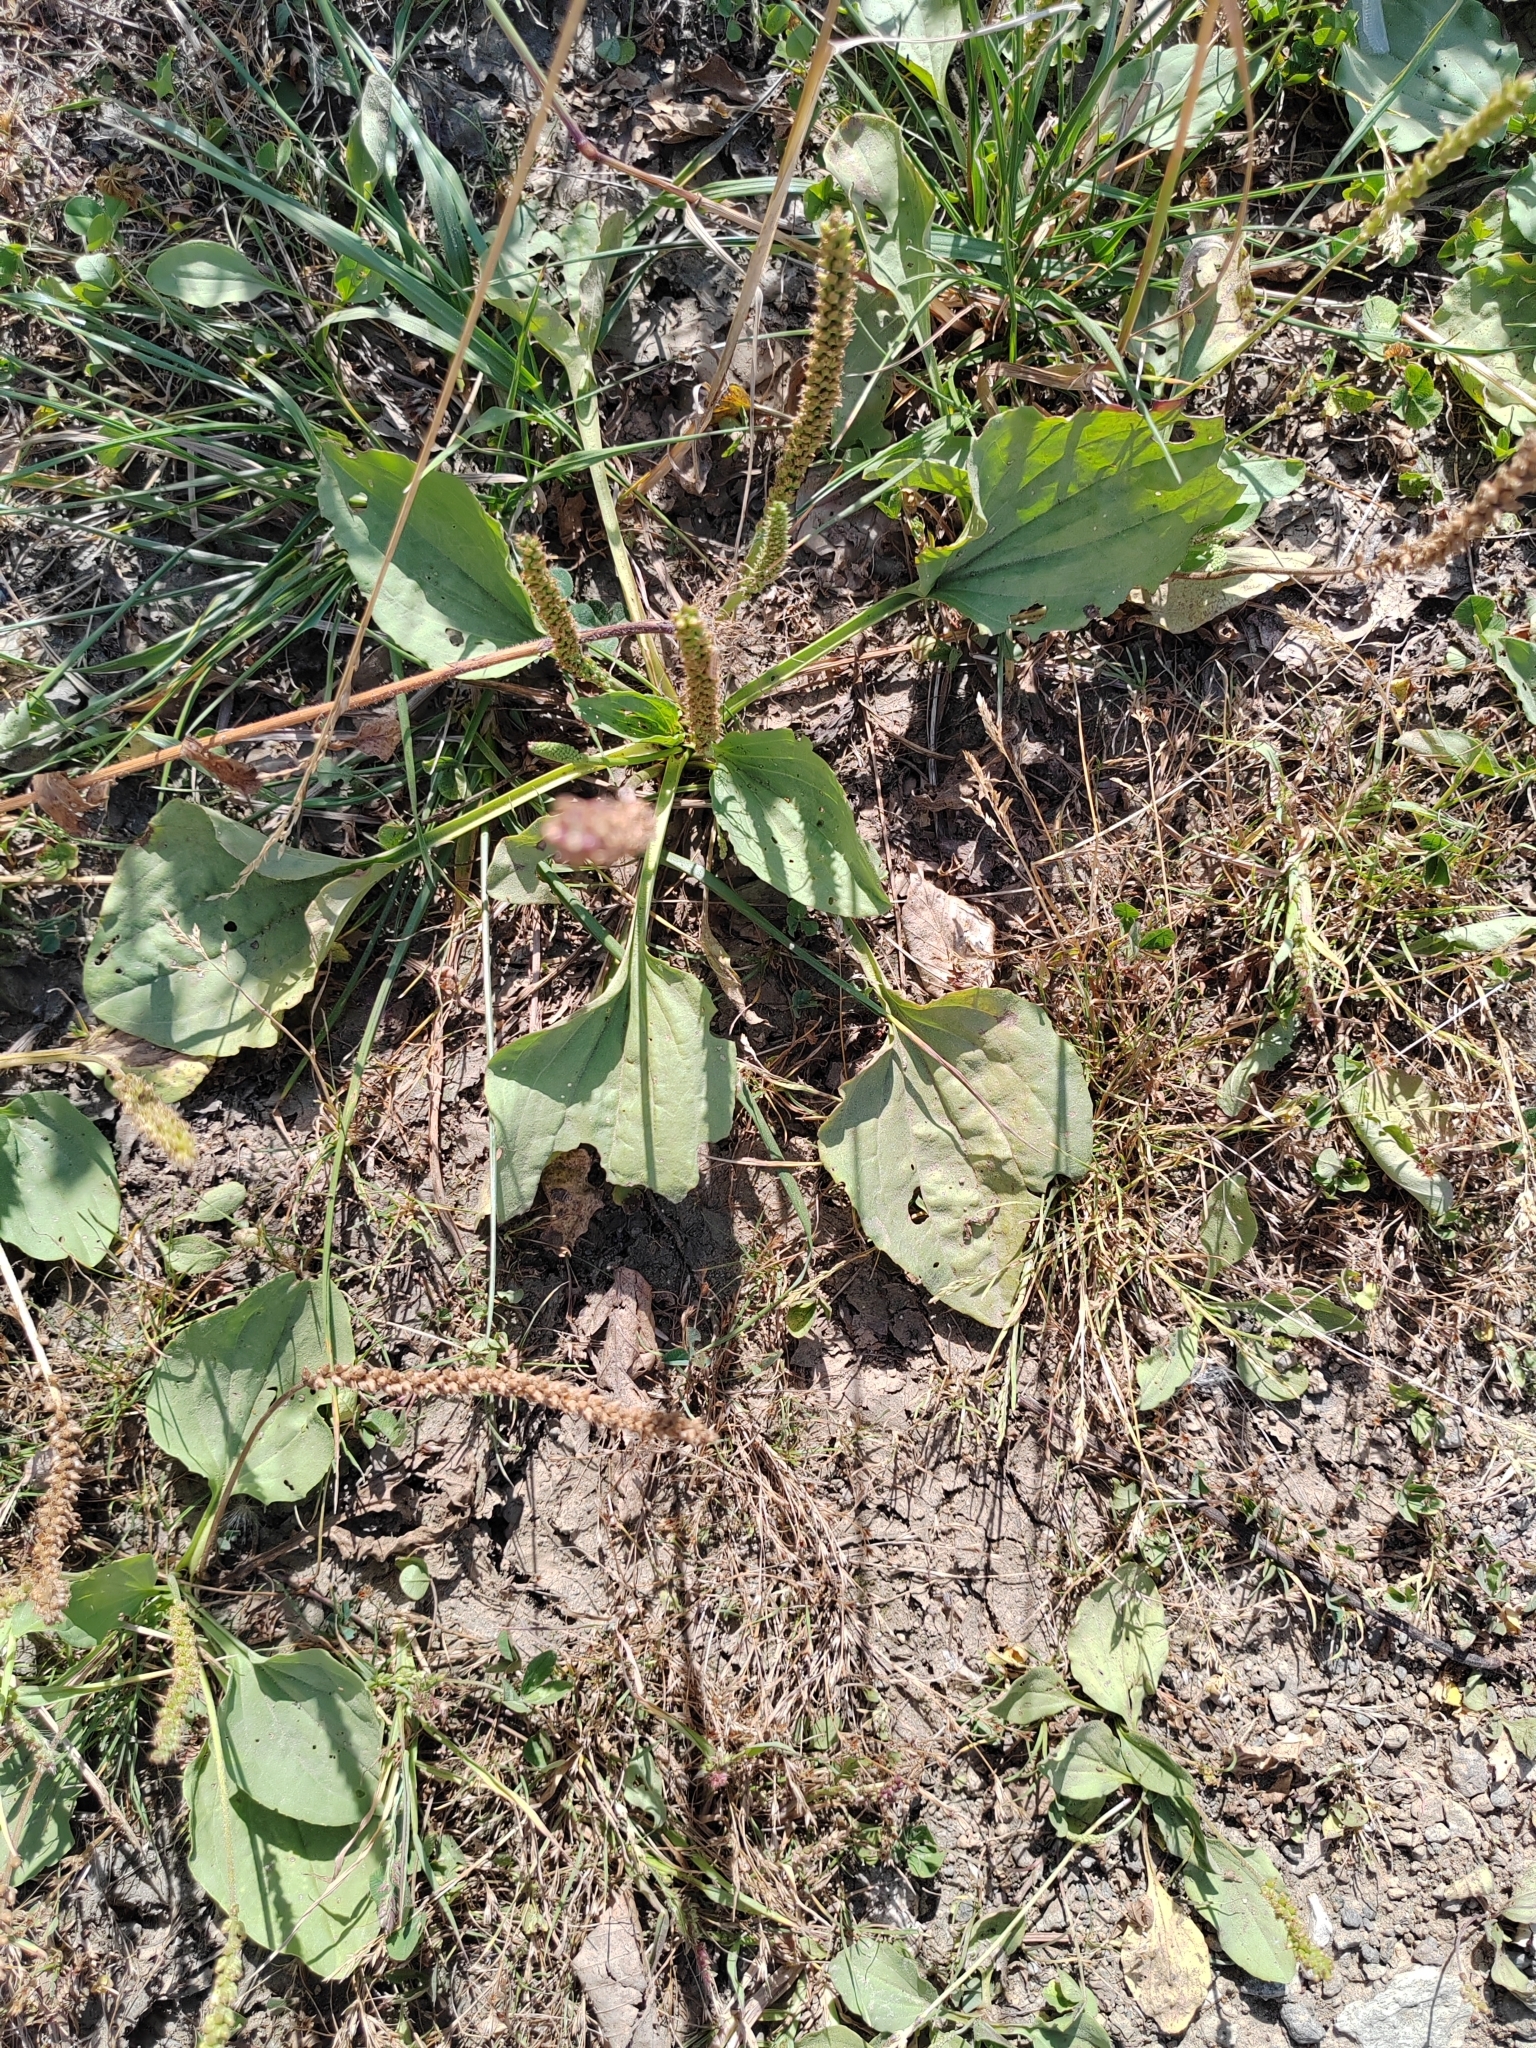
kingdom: Plantae
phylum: Tracheophyta
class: Magnoliopsida
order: Lamiales
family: Plantaginaceae
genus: Plantago
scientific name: Plantago major
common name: Common plantain
